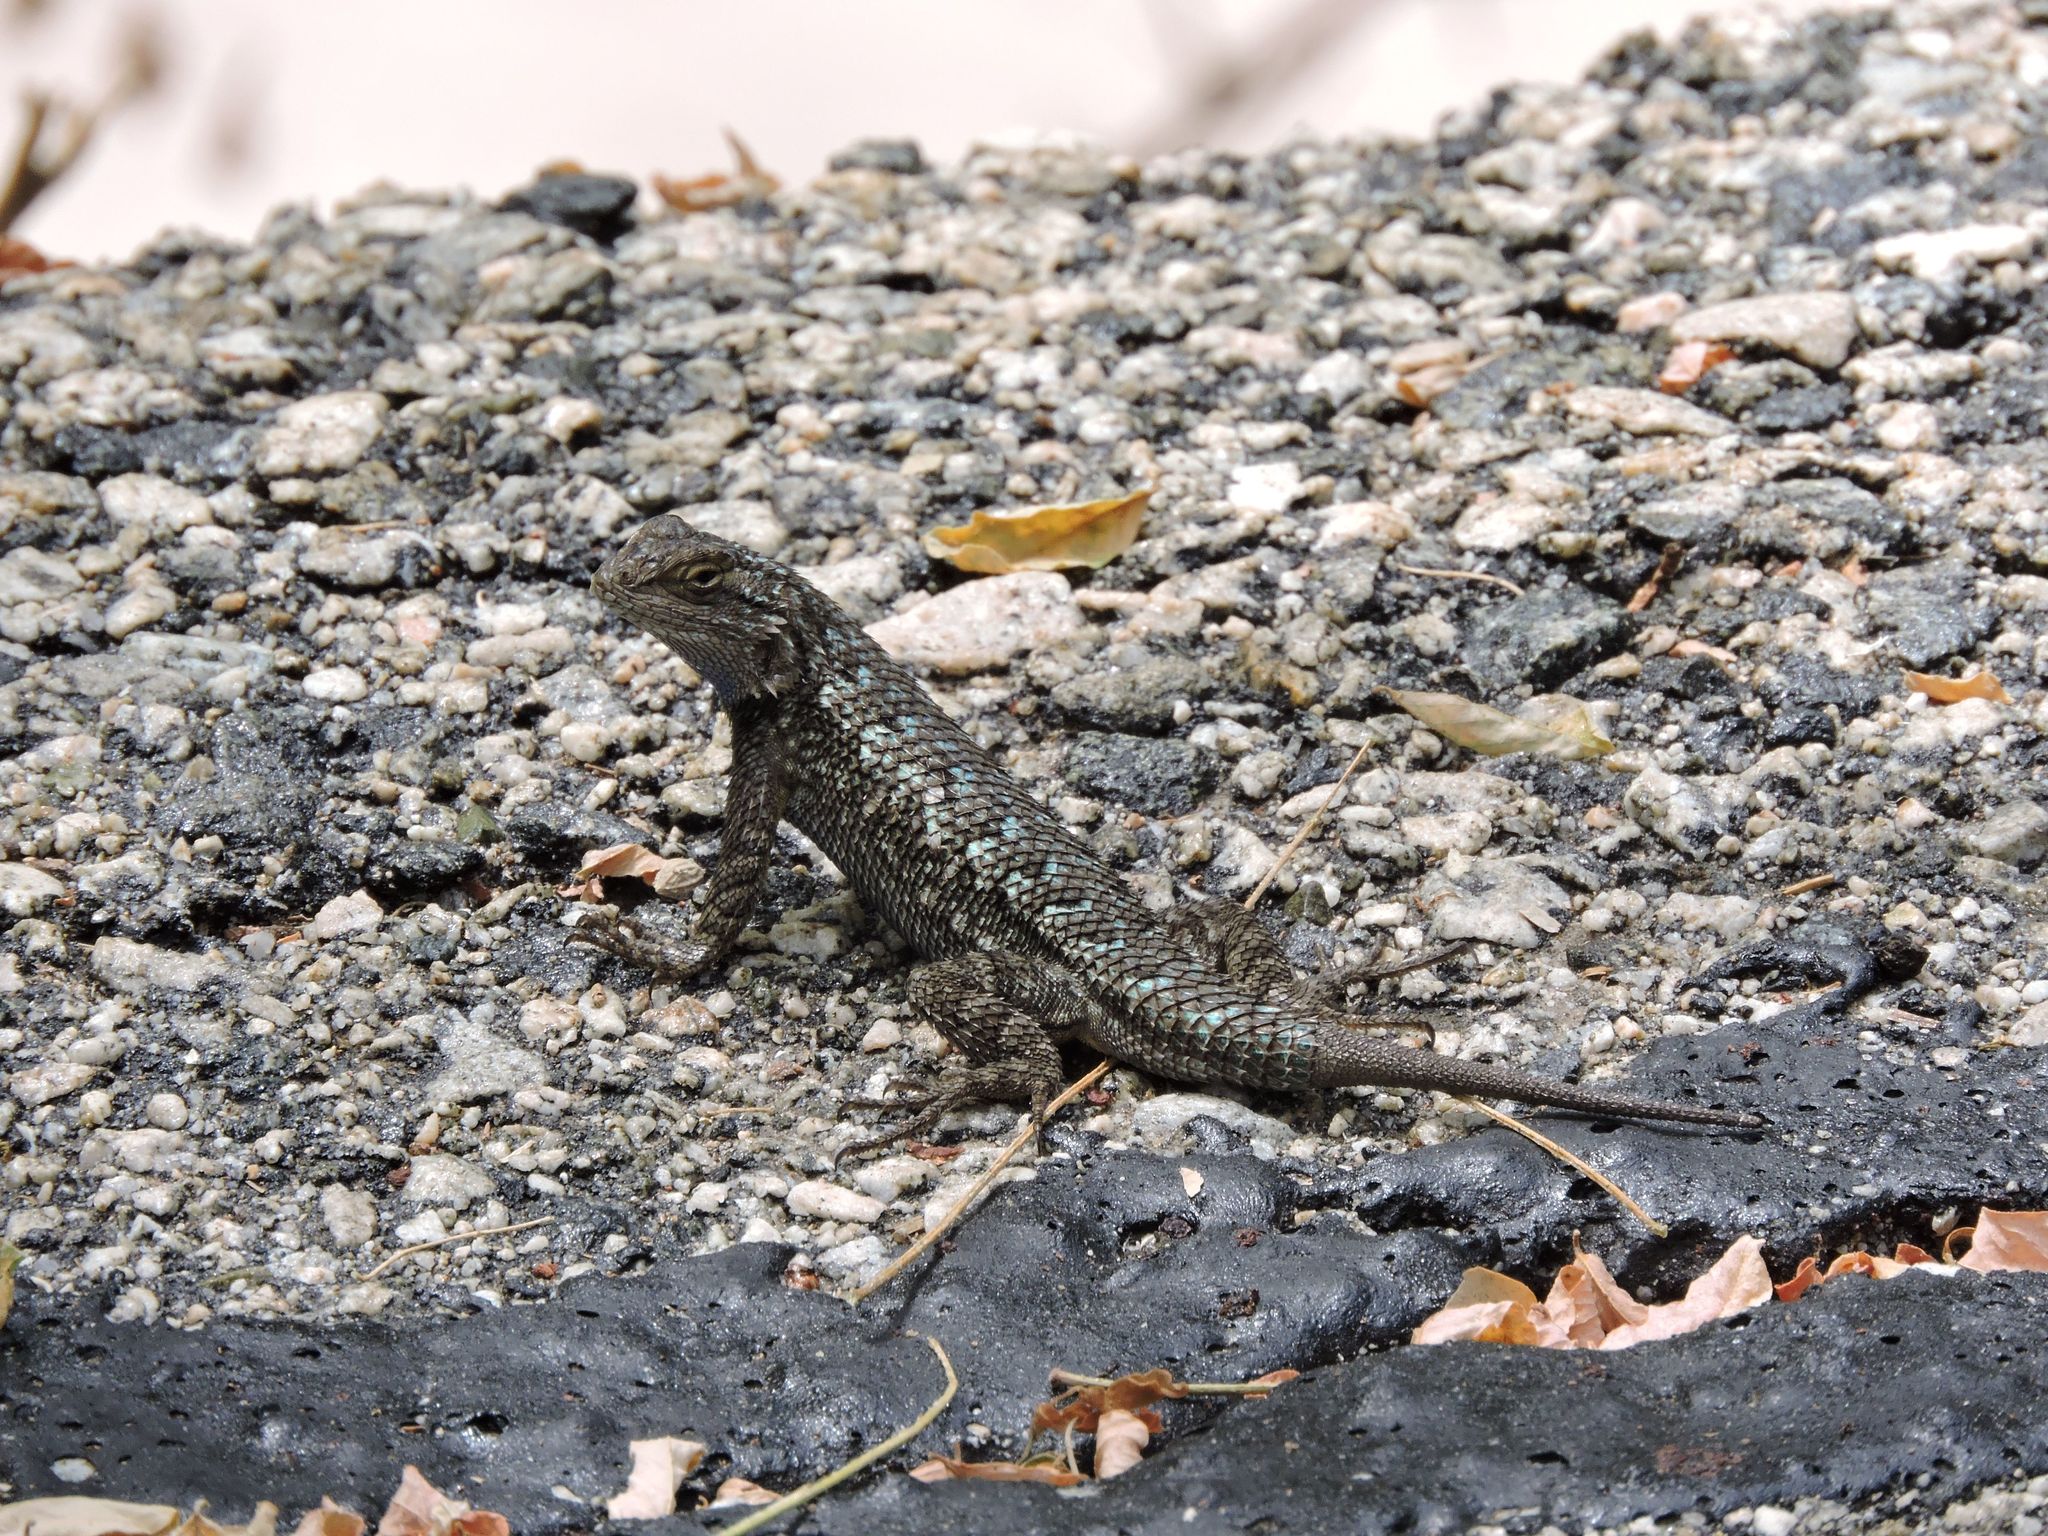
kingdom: Animalia
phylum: Chordata
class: Squamata
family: Phrynosomatidae
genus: Sceloporus
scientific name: Sceloporus occidentalis
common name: Western fence lizard
